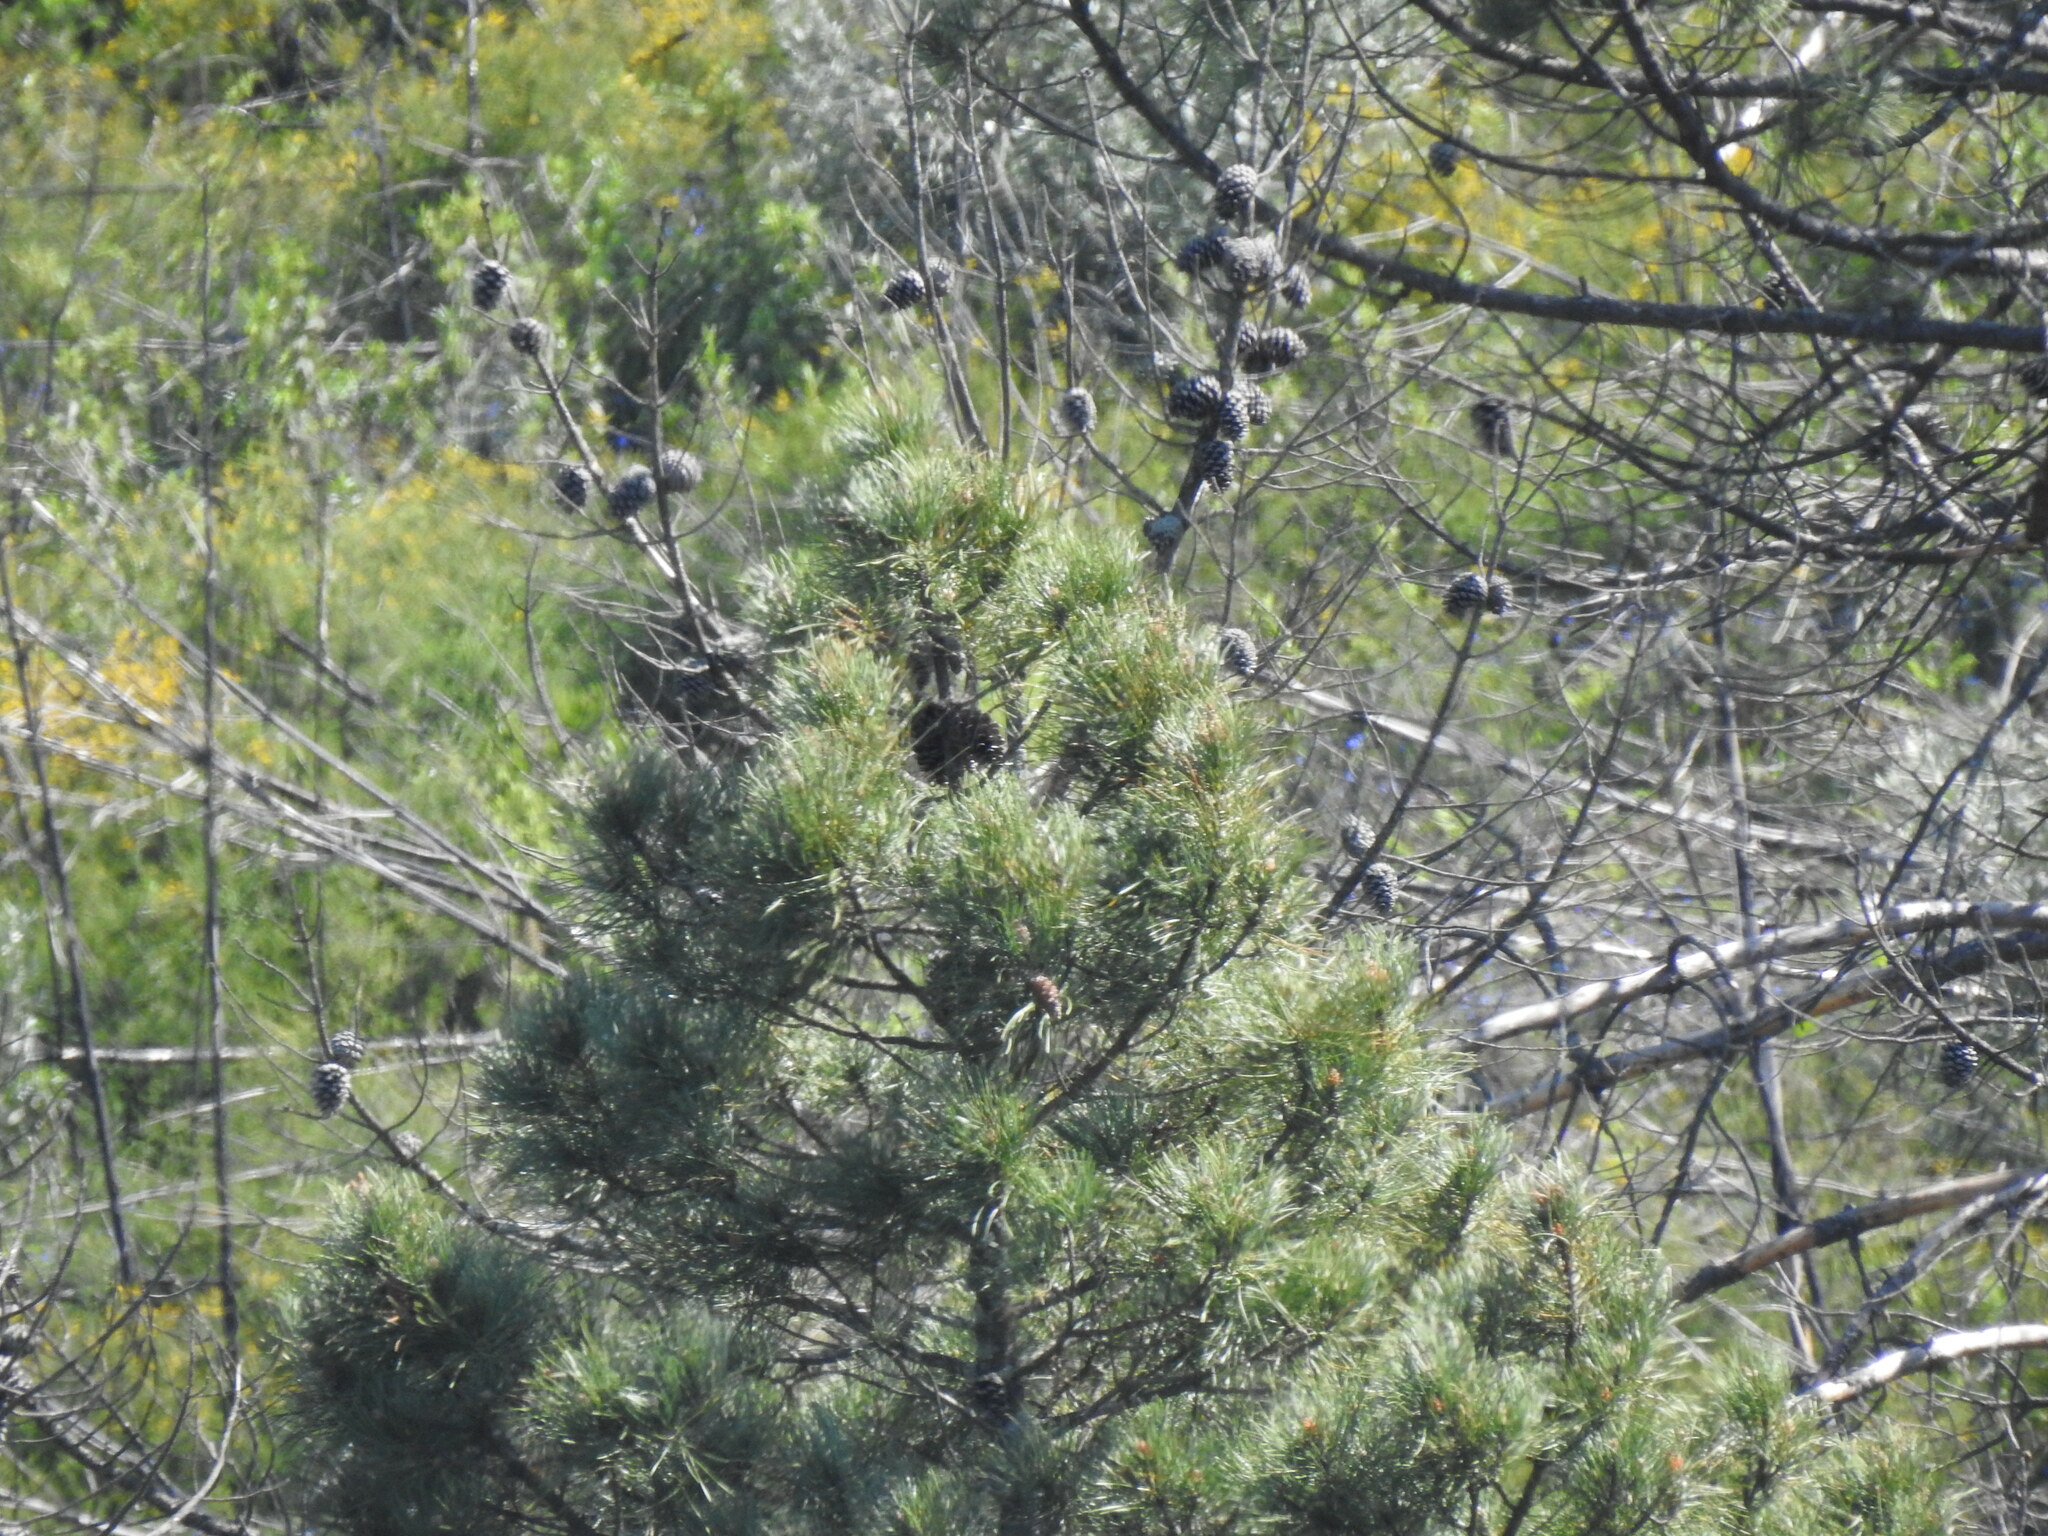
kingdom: Plantae
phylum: Tracheophyta
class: Pinopsida
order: Pinales
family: Pinaceae
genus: Pinus
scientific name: Pinus pinaster
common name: Maritime pine
